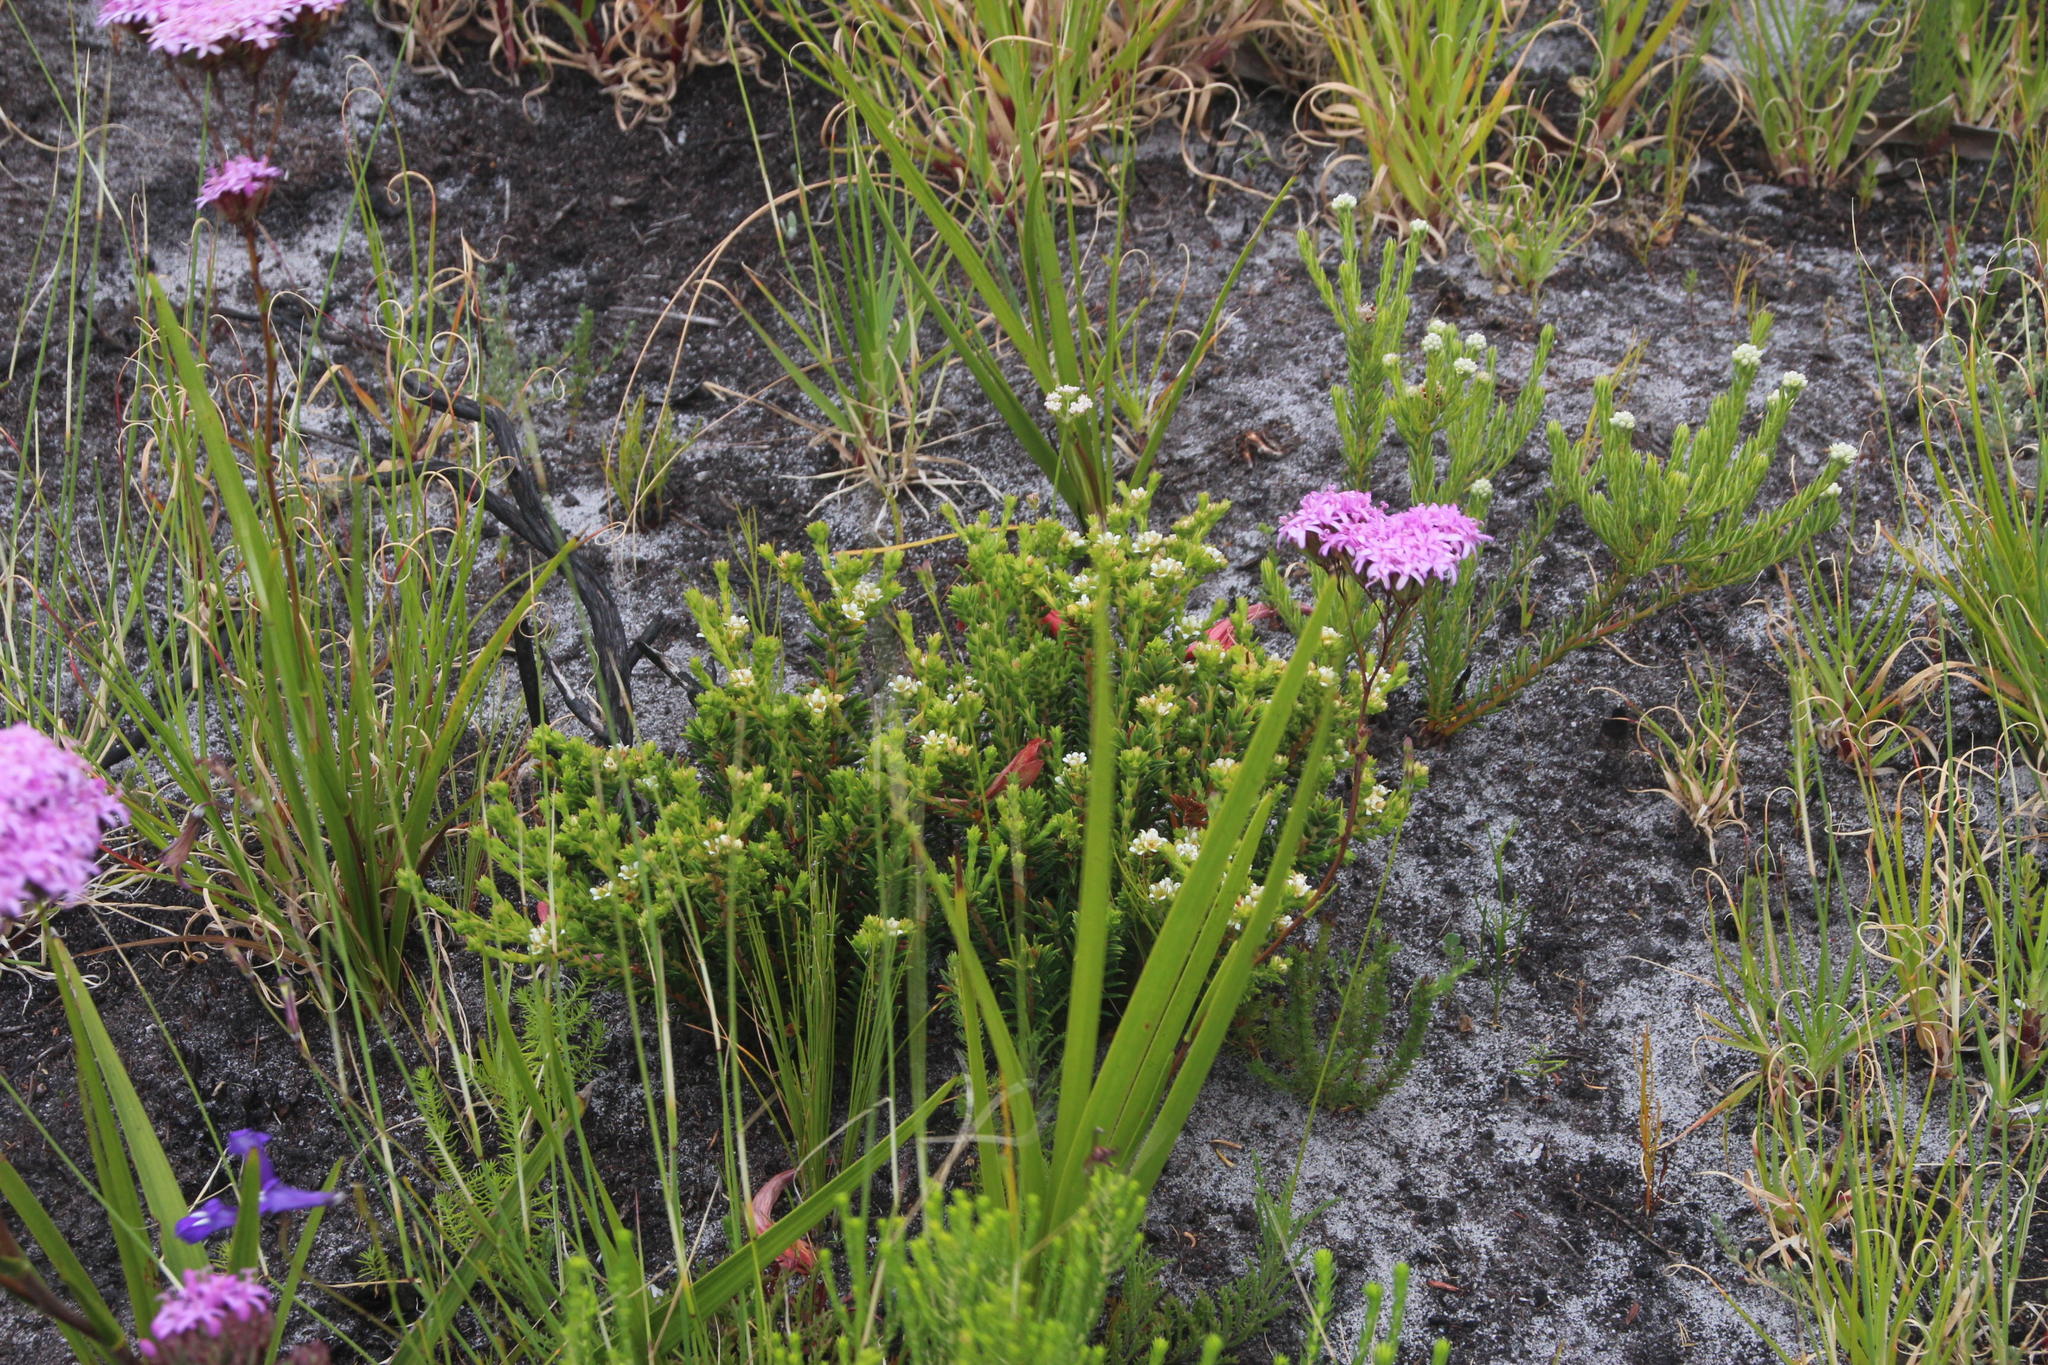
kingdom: Plantae
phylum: Tracheophyta
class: Magnoliopsida
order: Sapindales
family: Rutaceae
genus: Diosma
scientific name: Diosma oppositifolia
